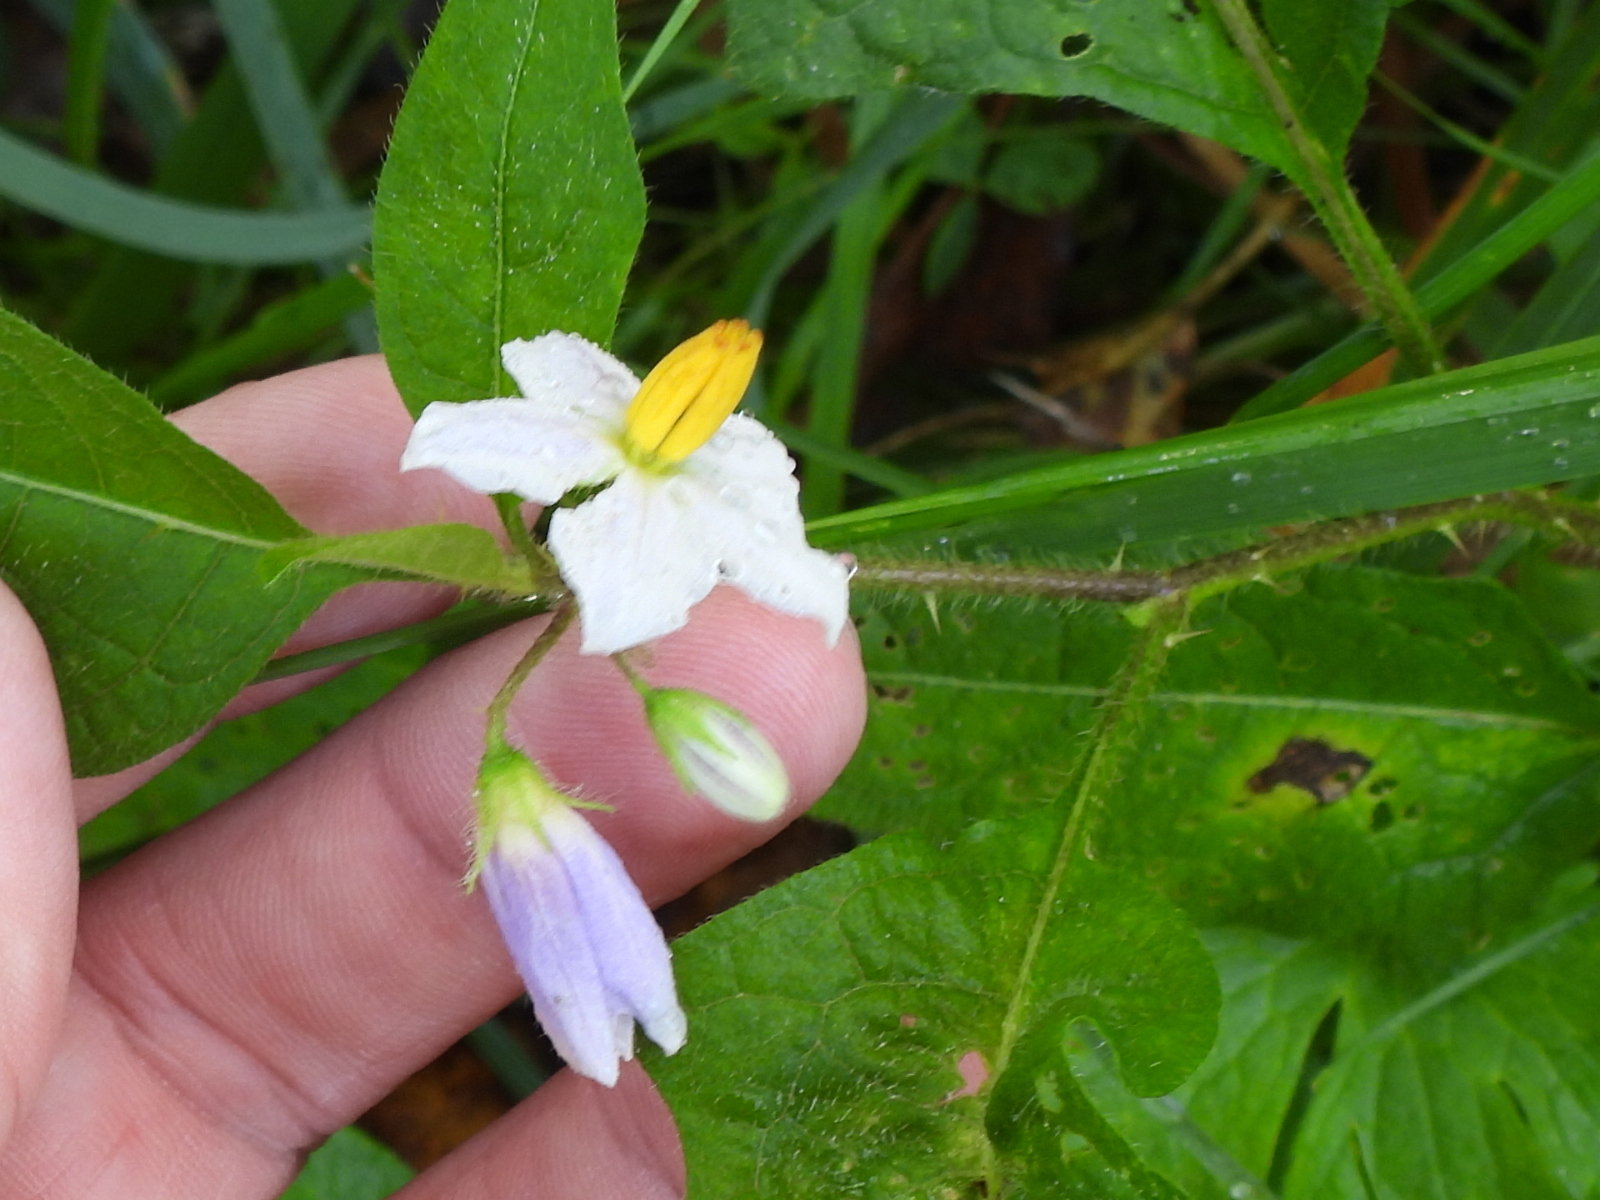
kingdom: Plantae
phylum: Tracheophyta
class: Magnoliopsida
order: Solanales
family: Solanaceae
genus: Solanum
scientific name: Solanum carolinense
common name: Horse-nettle
